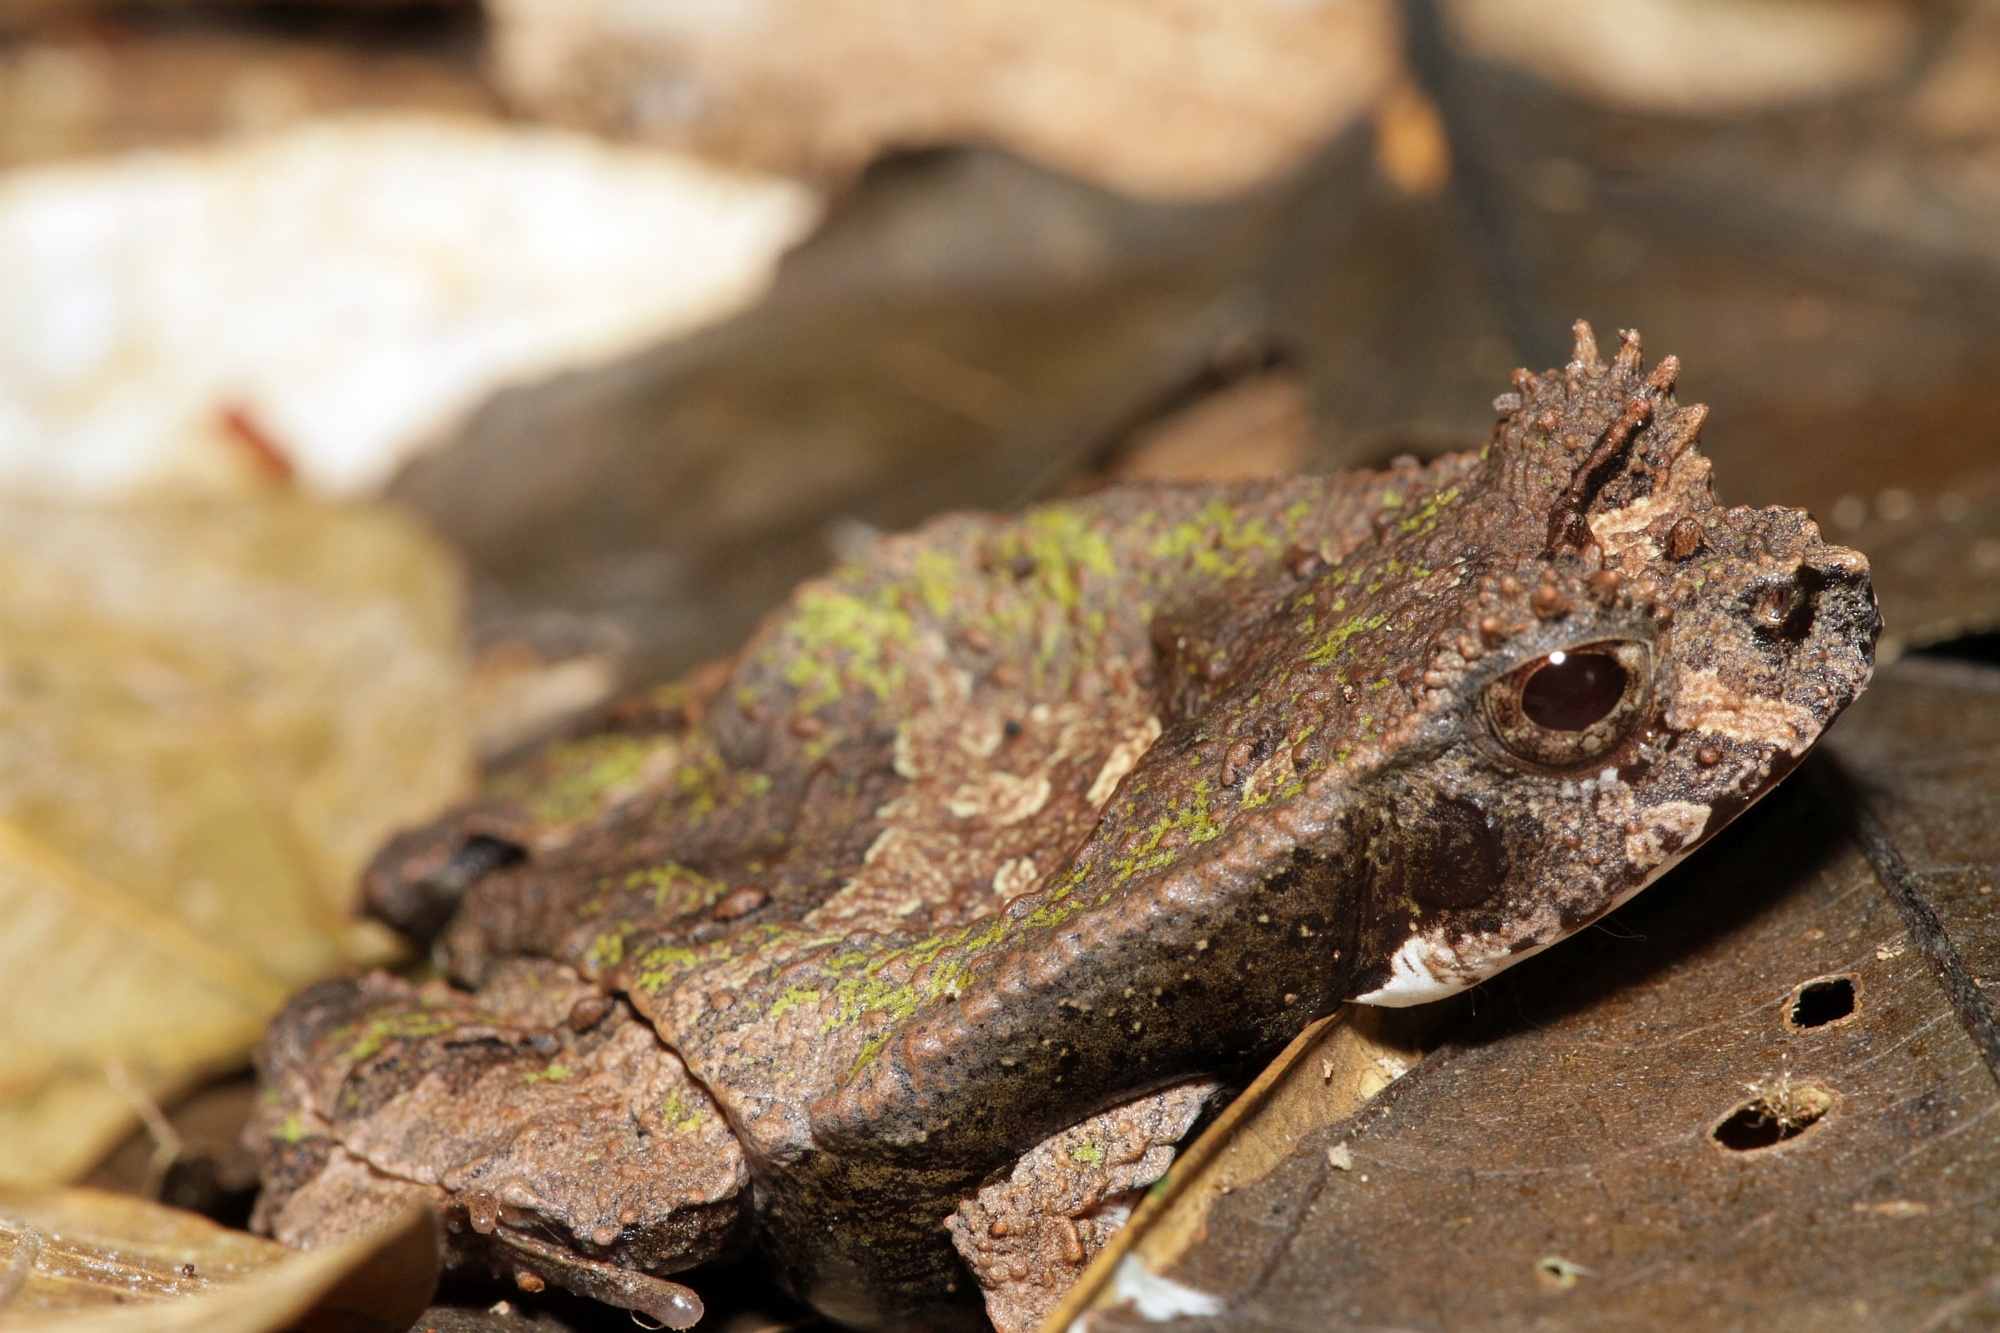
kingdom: Animalia
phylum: Chordata
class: Amphibia
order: Anura
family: Leptodactylidae
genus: Edalorhina
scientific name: Edalorhina perezi
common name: Perez’s snouted frog
